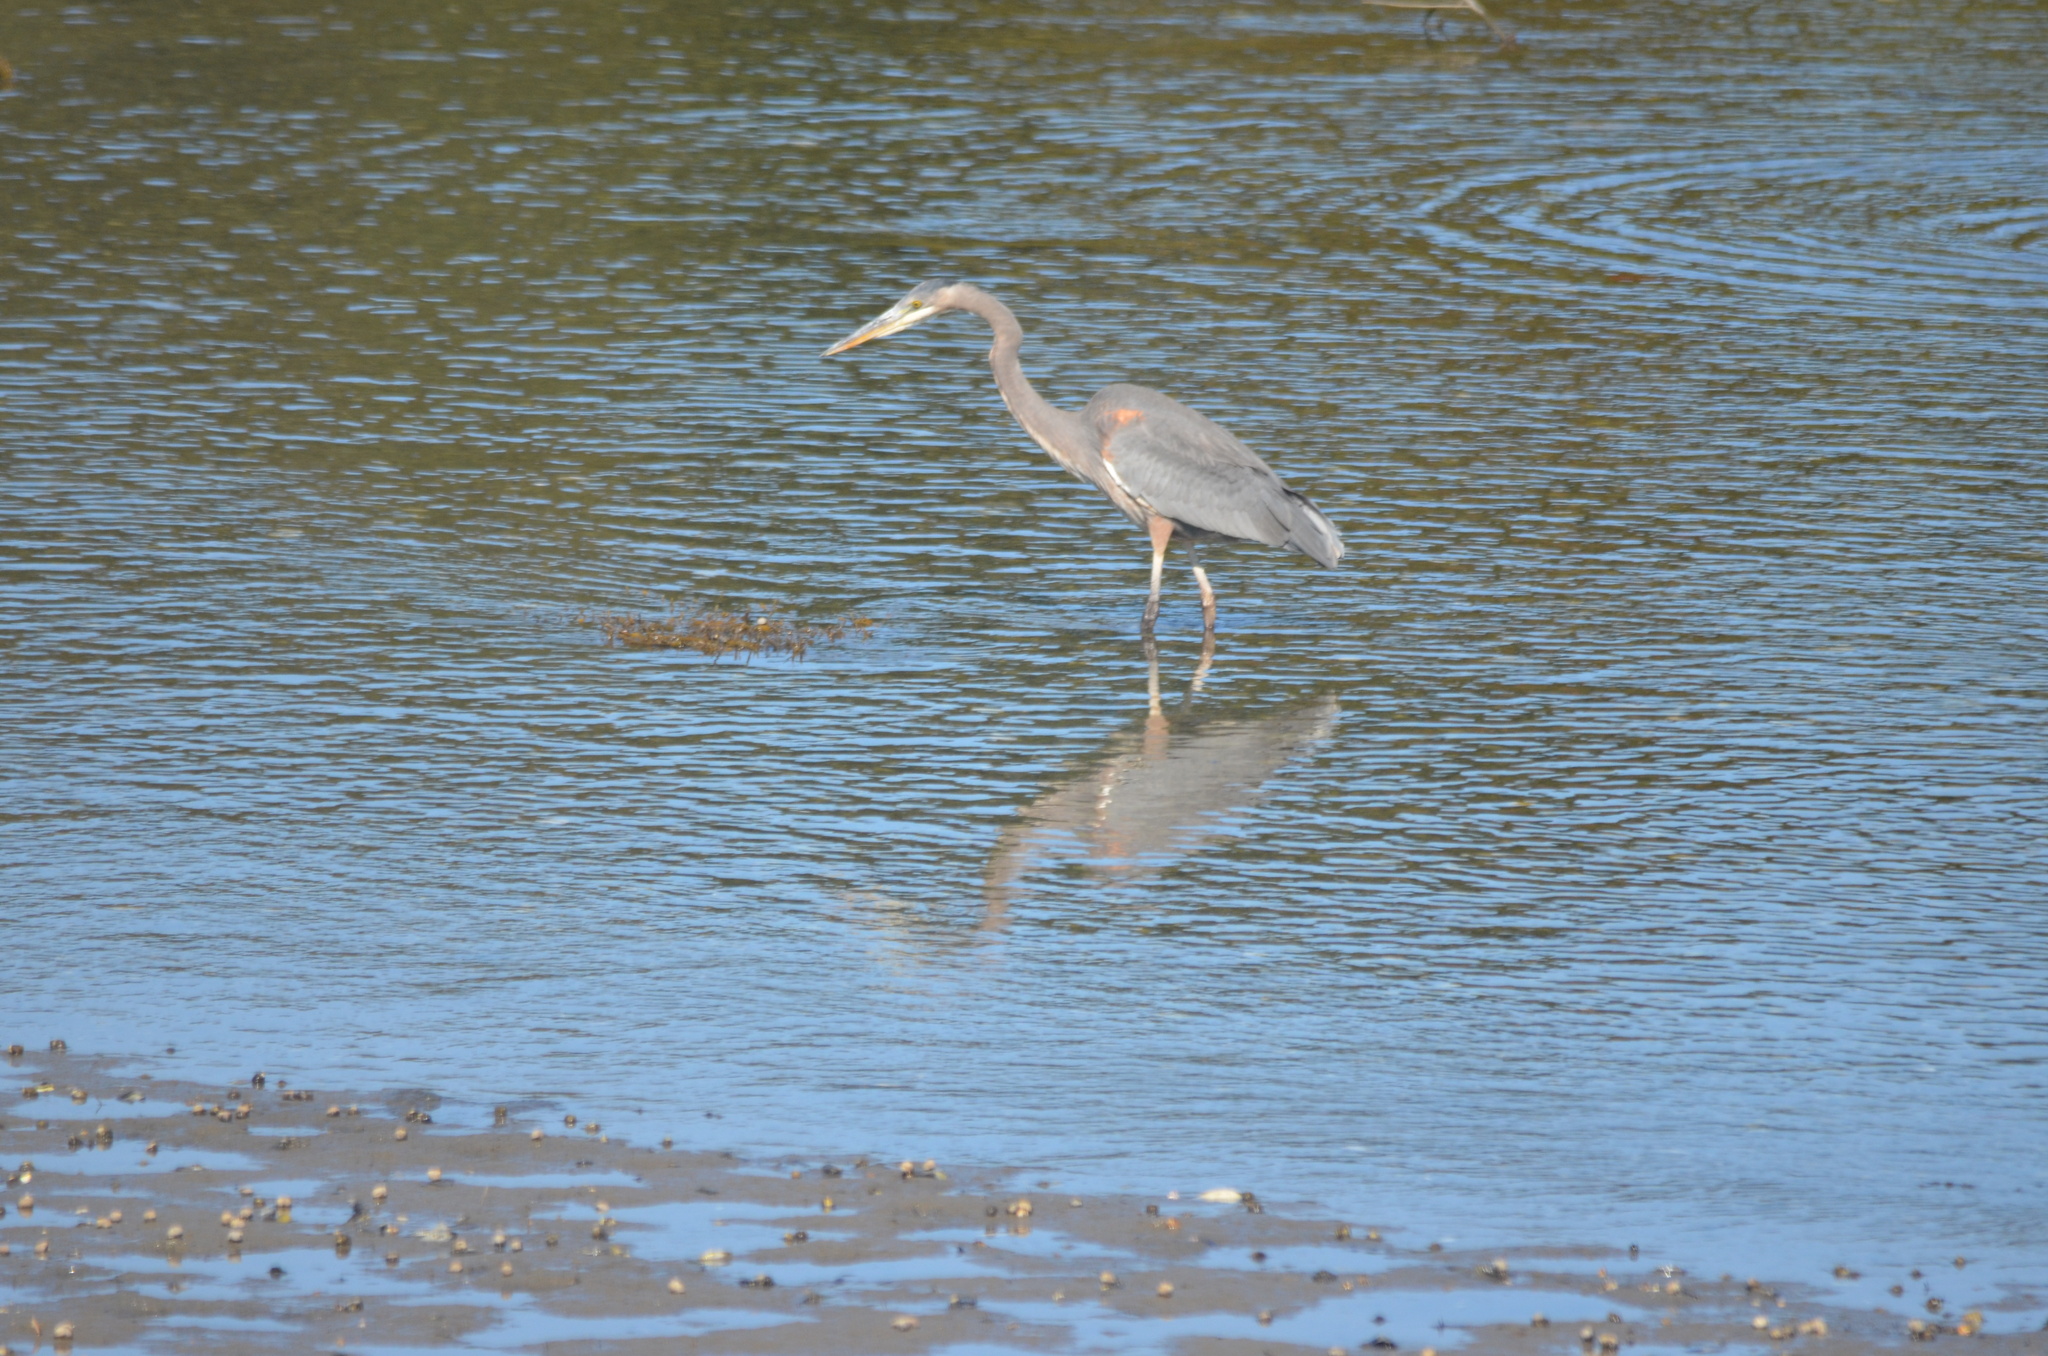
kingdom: Animalia
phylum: Chordata
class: Aves
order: Pelecaniformes
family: Ardeidae
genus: Ardea
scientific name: Ardea herodias
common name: Great blue heron
